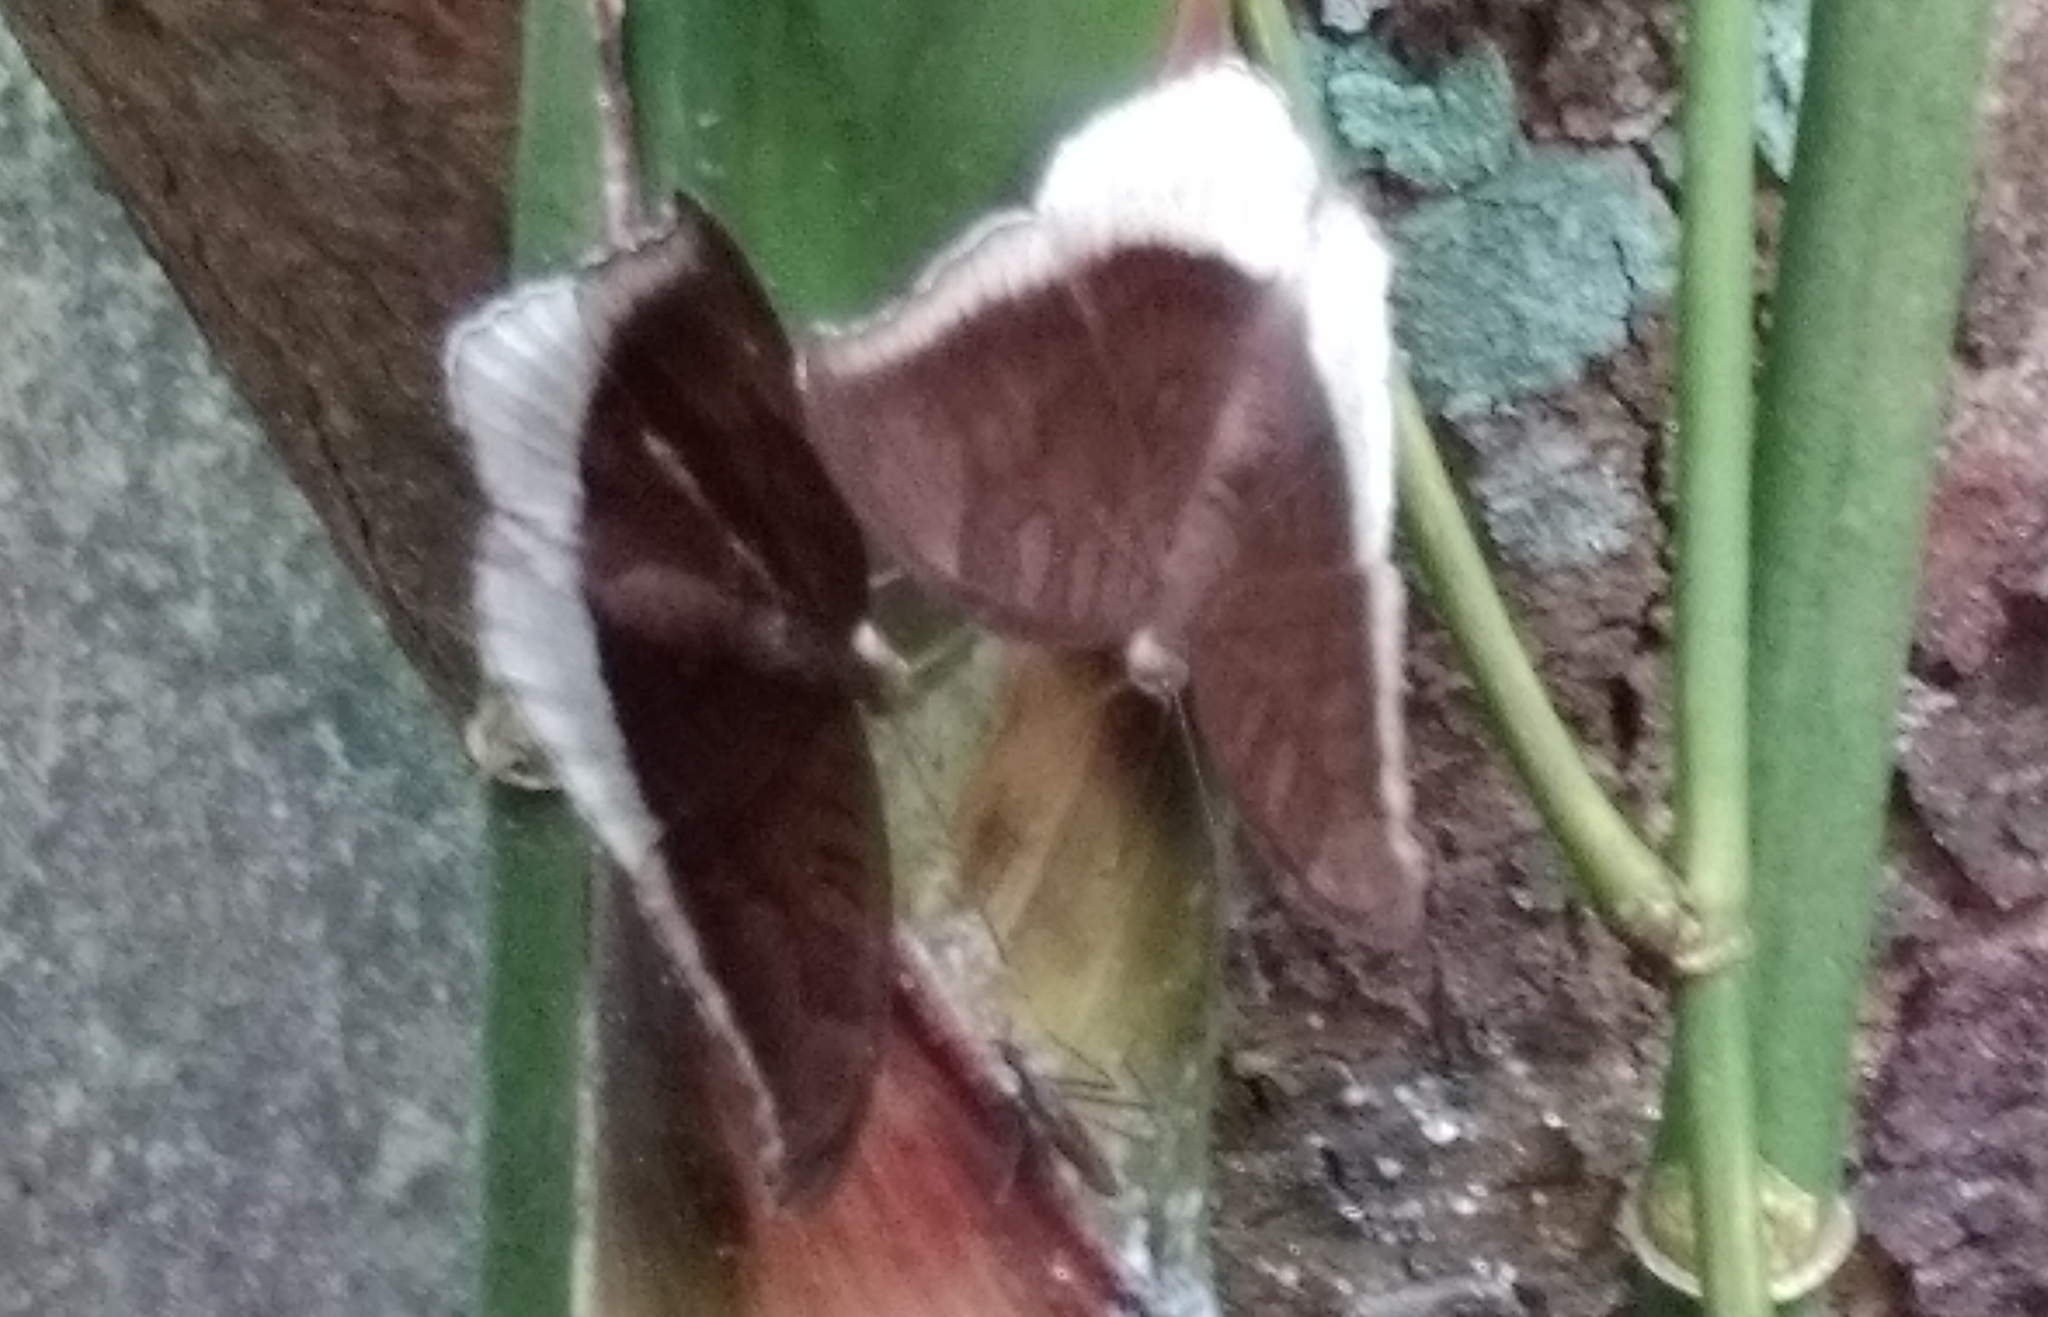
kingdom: Animalia
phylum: Arthropoda
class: Insecta
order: Lepidoptera
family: Nymphalidae
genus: Tanaecia
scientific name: Tanaecia lepidea
